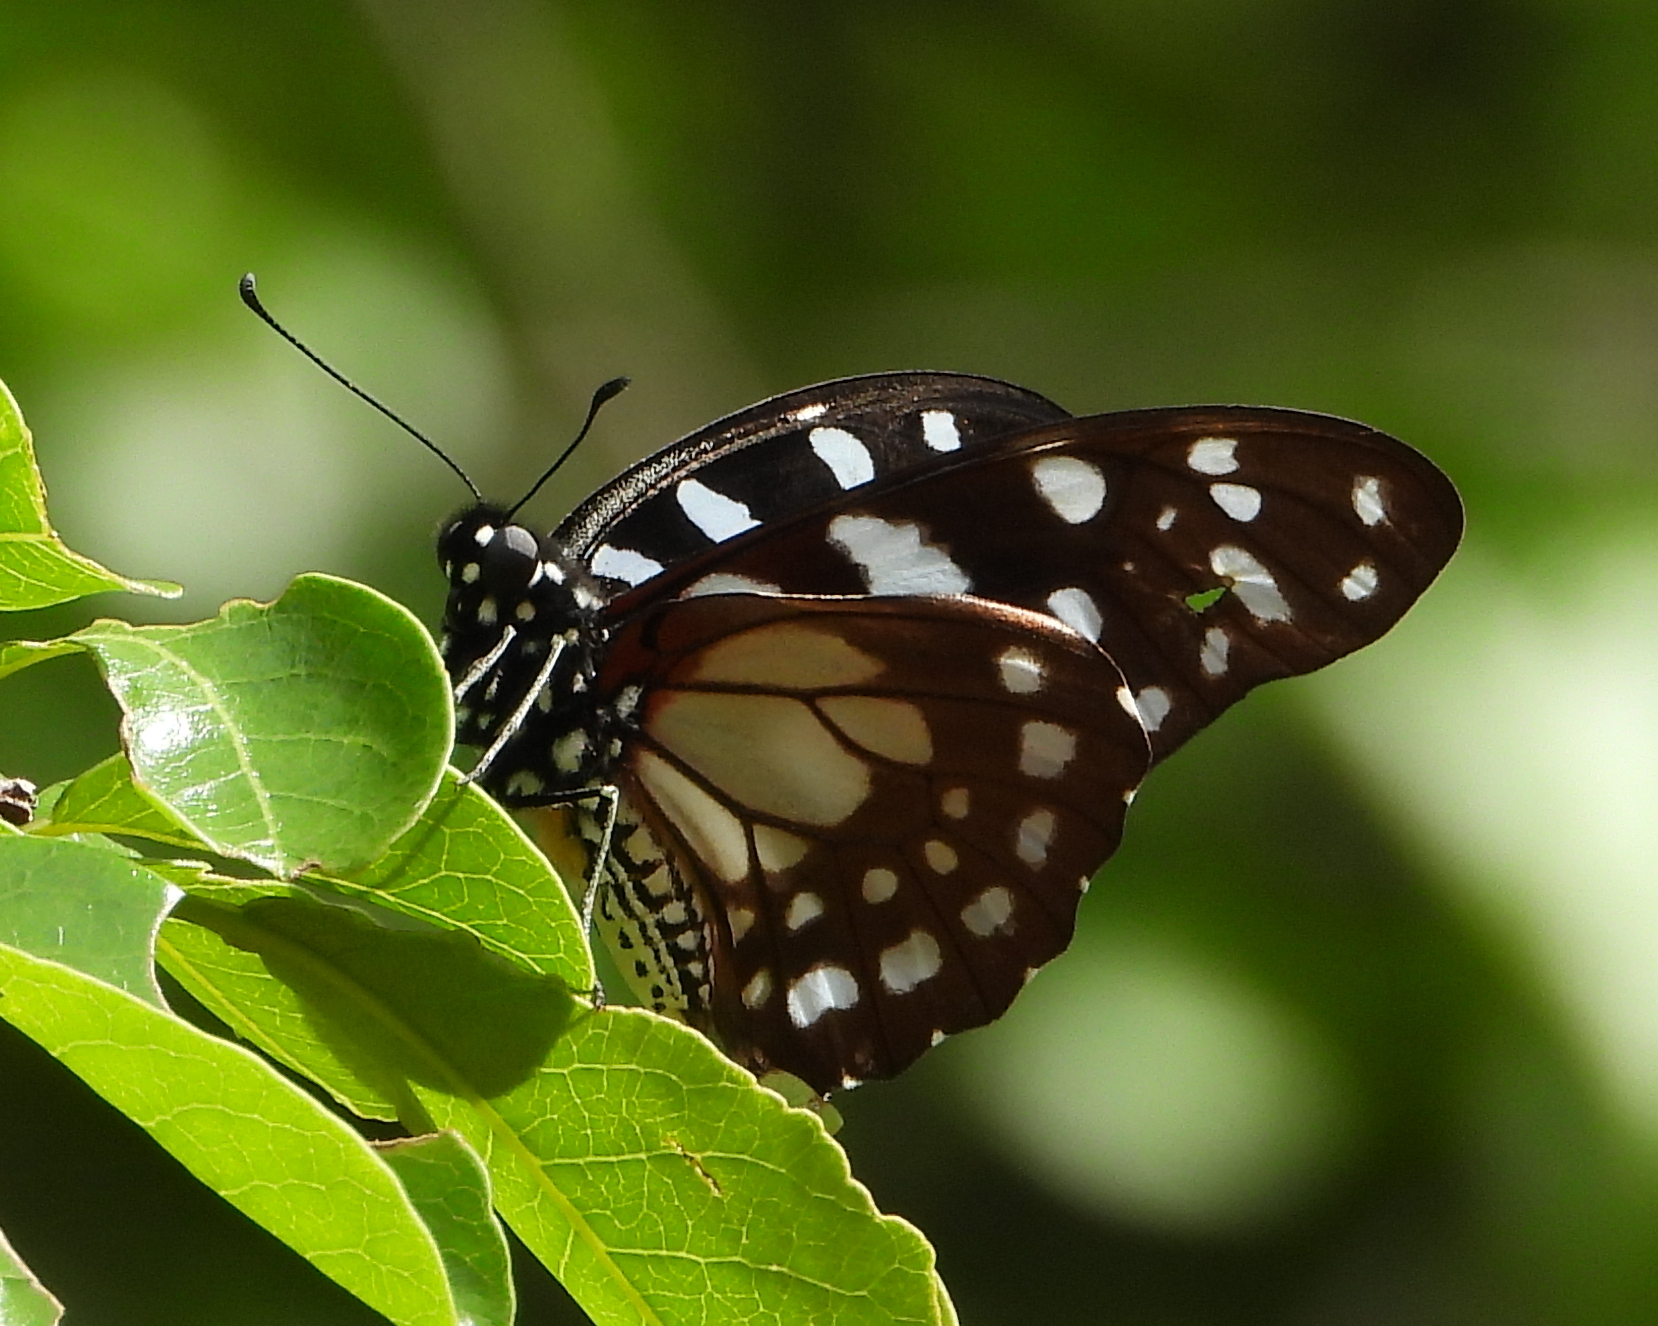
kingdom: Animalia
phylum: Arthropoda
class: Insecta
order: Lepidoptera
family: Papilionidae
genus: Graphium
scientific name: Graphium leonidas
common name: Common graphium
